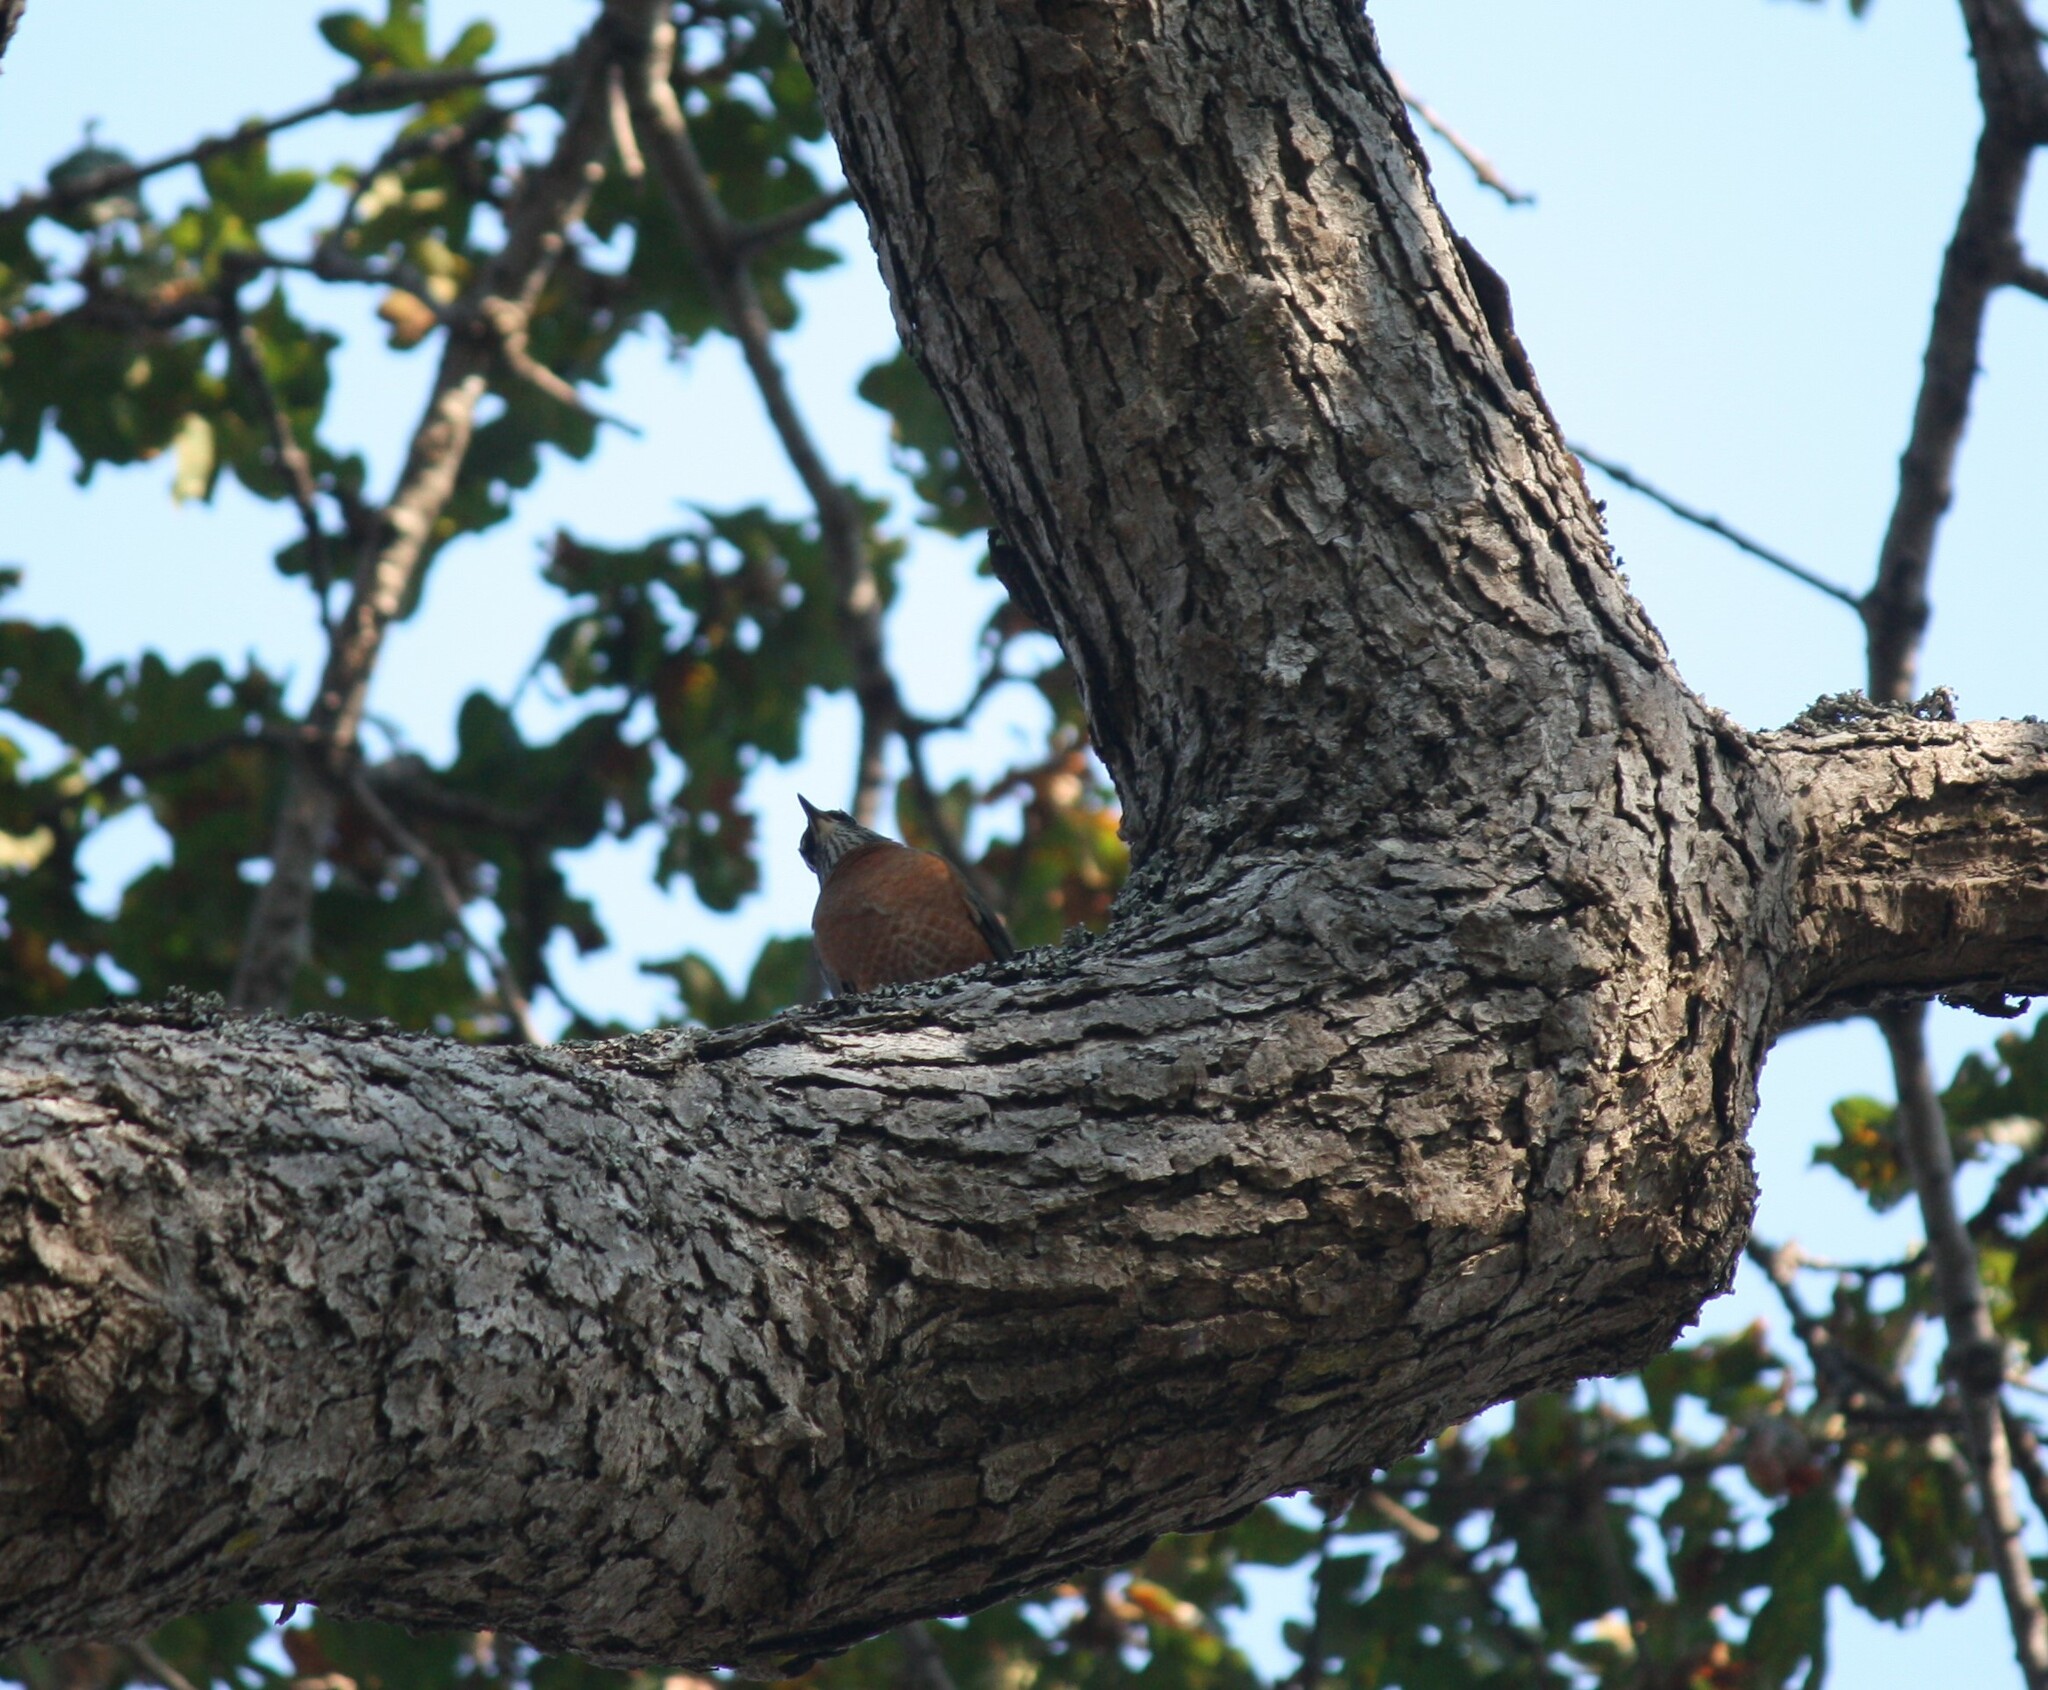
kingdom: Animalia
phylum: Chordata
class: Aves
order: Passeriformes
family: Turdidae
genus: Turdus
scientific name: Turdus migratorius
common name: American robin
